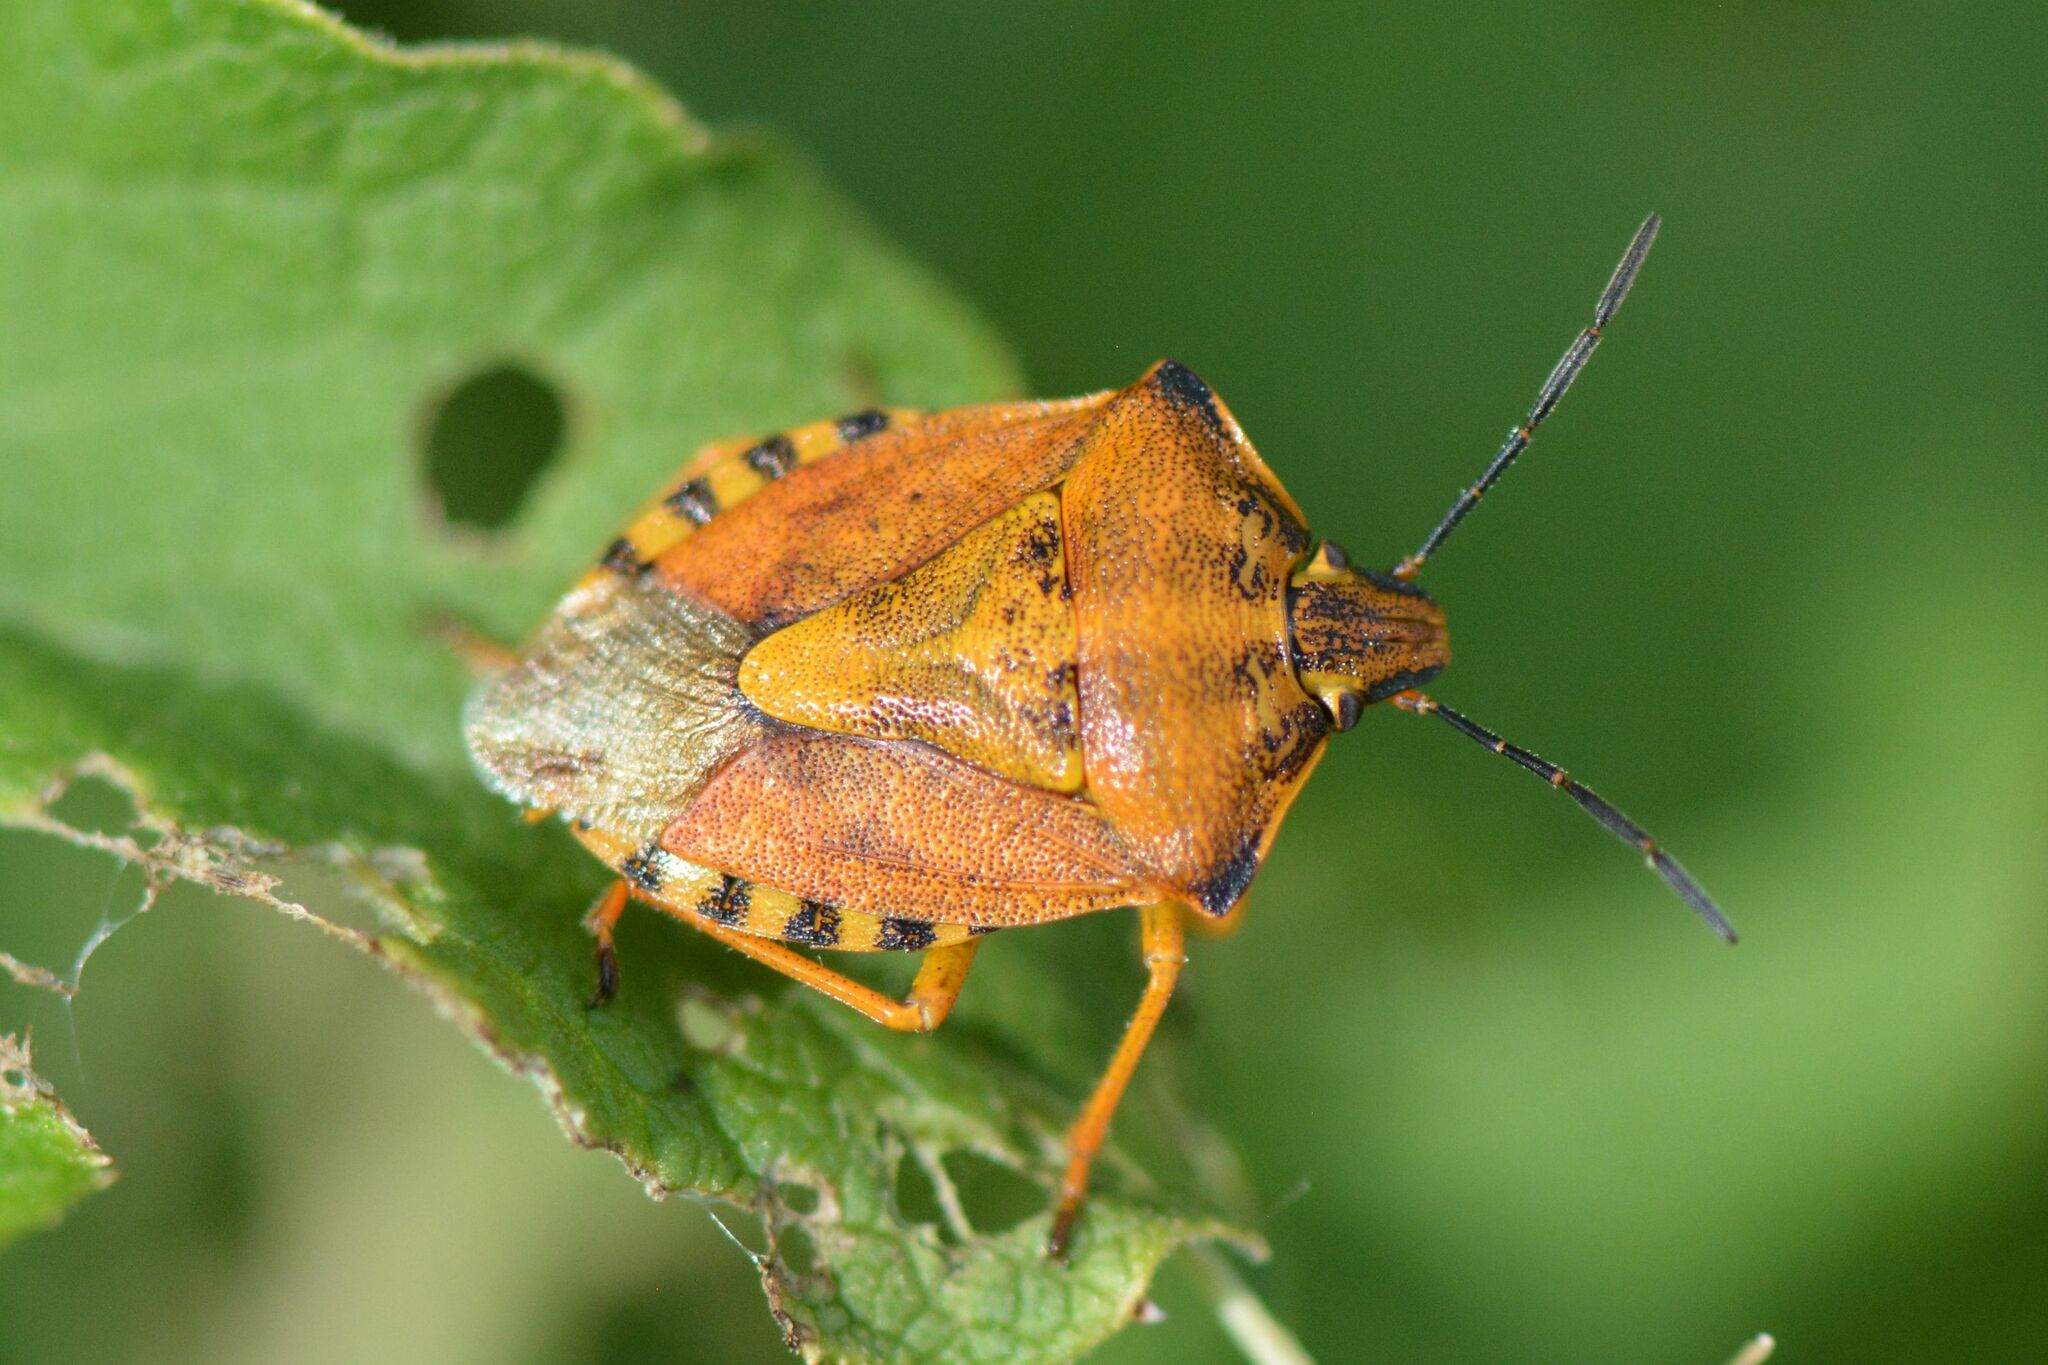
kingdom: Animalia
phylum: Arthropoda
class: Insecta
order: Hemiptera
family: Pentatomidae
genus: Carpocoris
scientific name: Carpocoris purpureipennis
